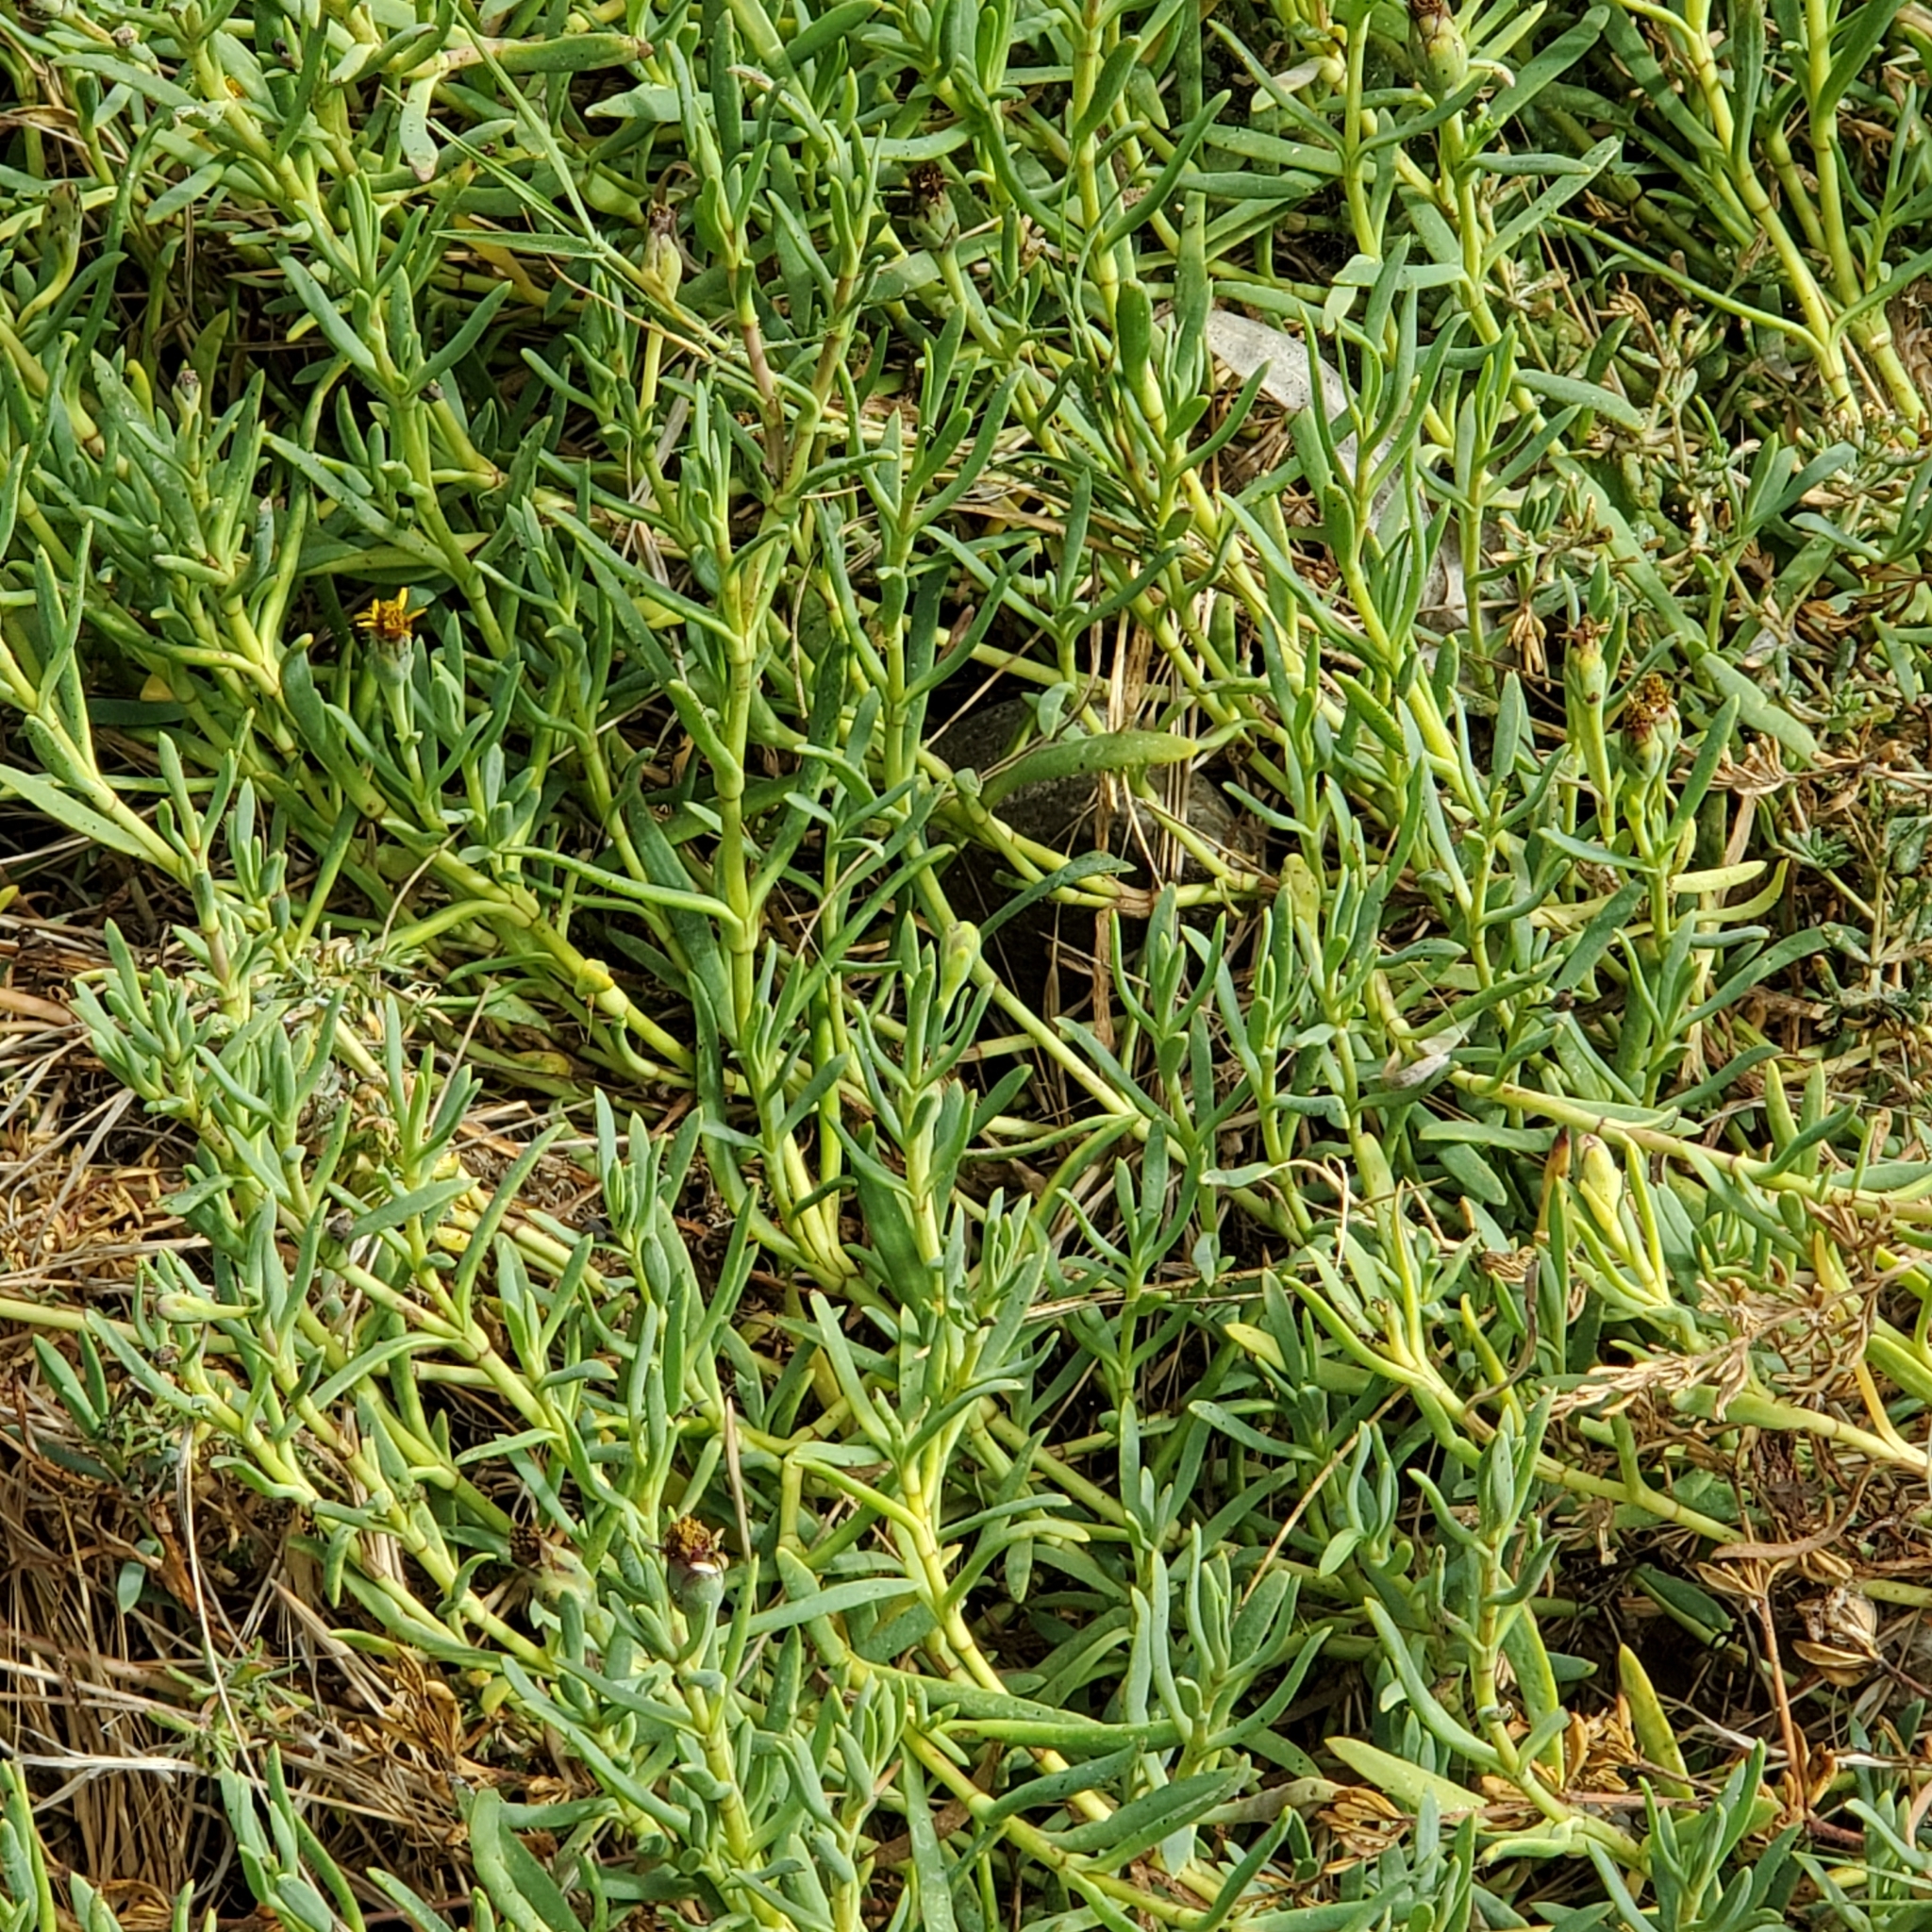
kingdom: Plantae
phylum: Tracheophyta
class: Magnoliopsida
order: Asterales
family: Asteraceae
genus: Jaumea
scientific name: Jaumea carnosa
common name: Fleshy jaumea
